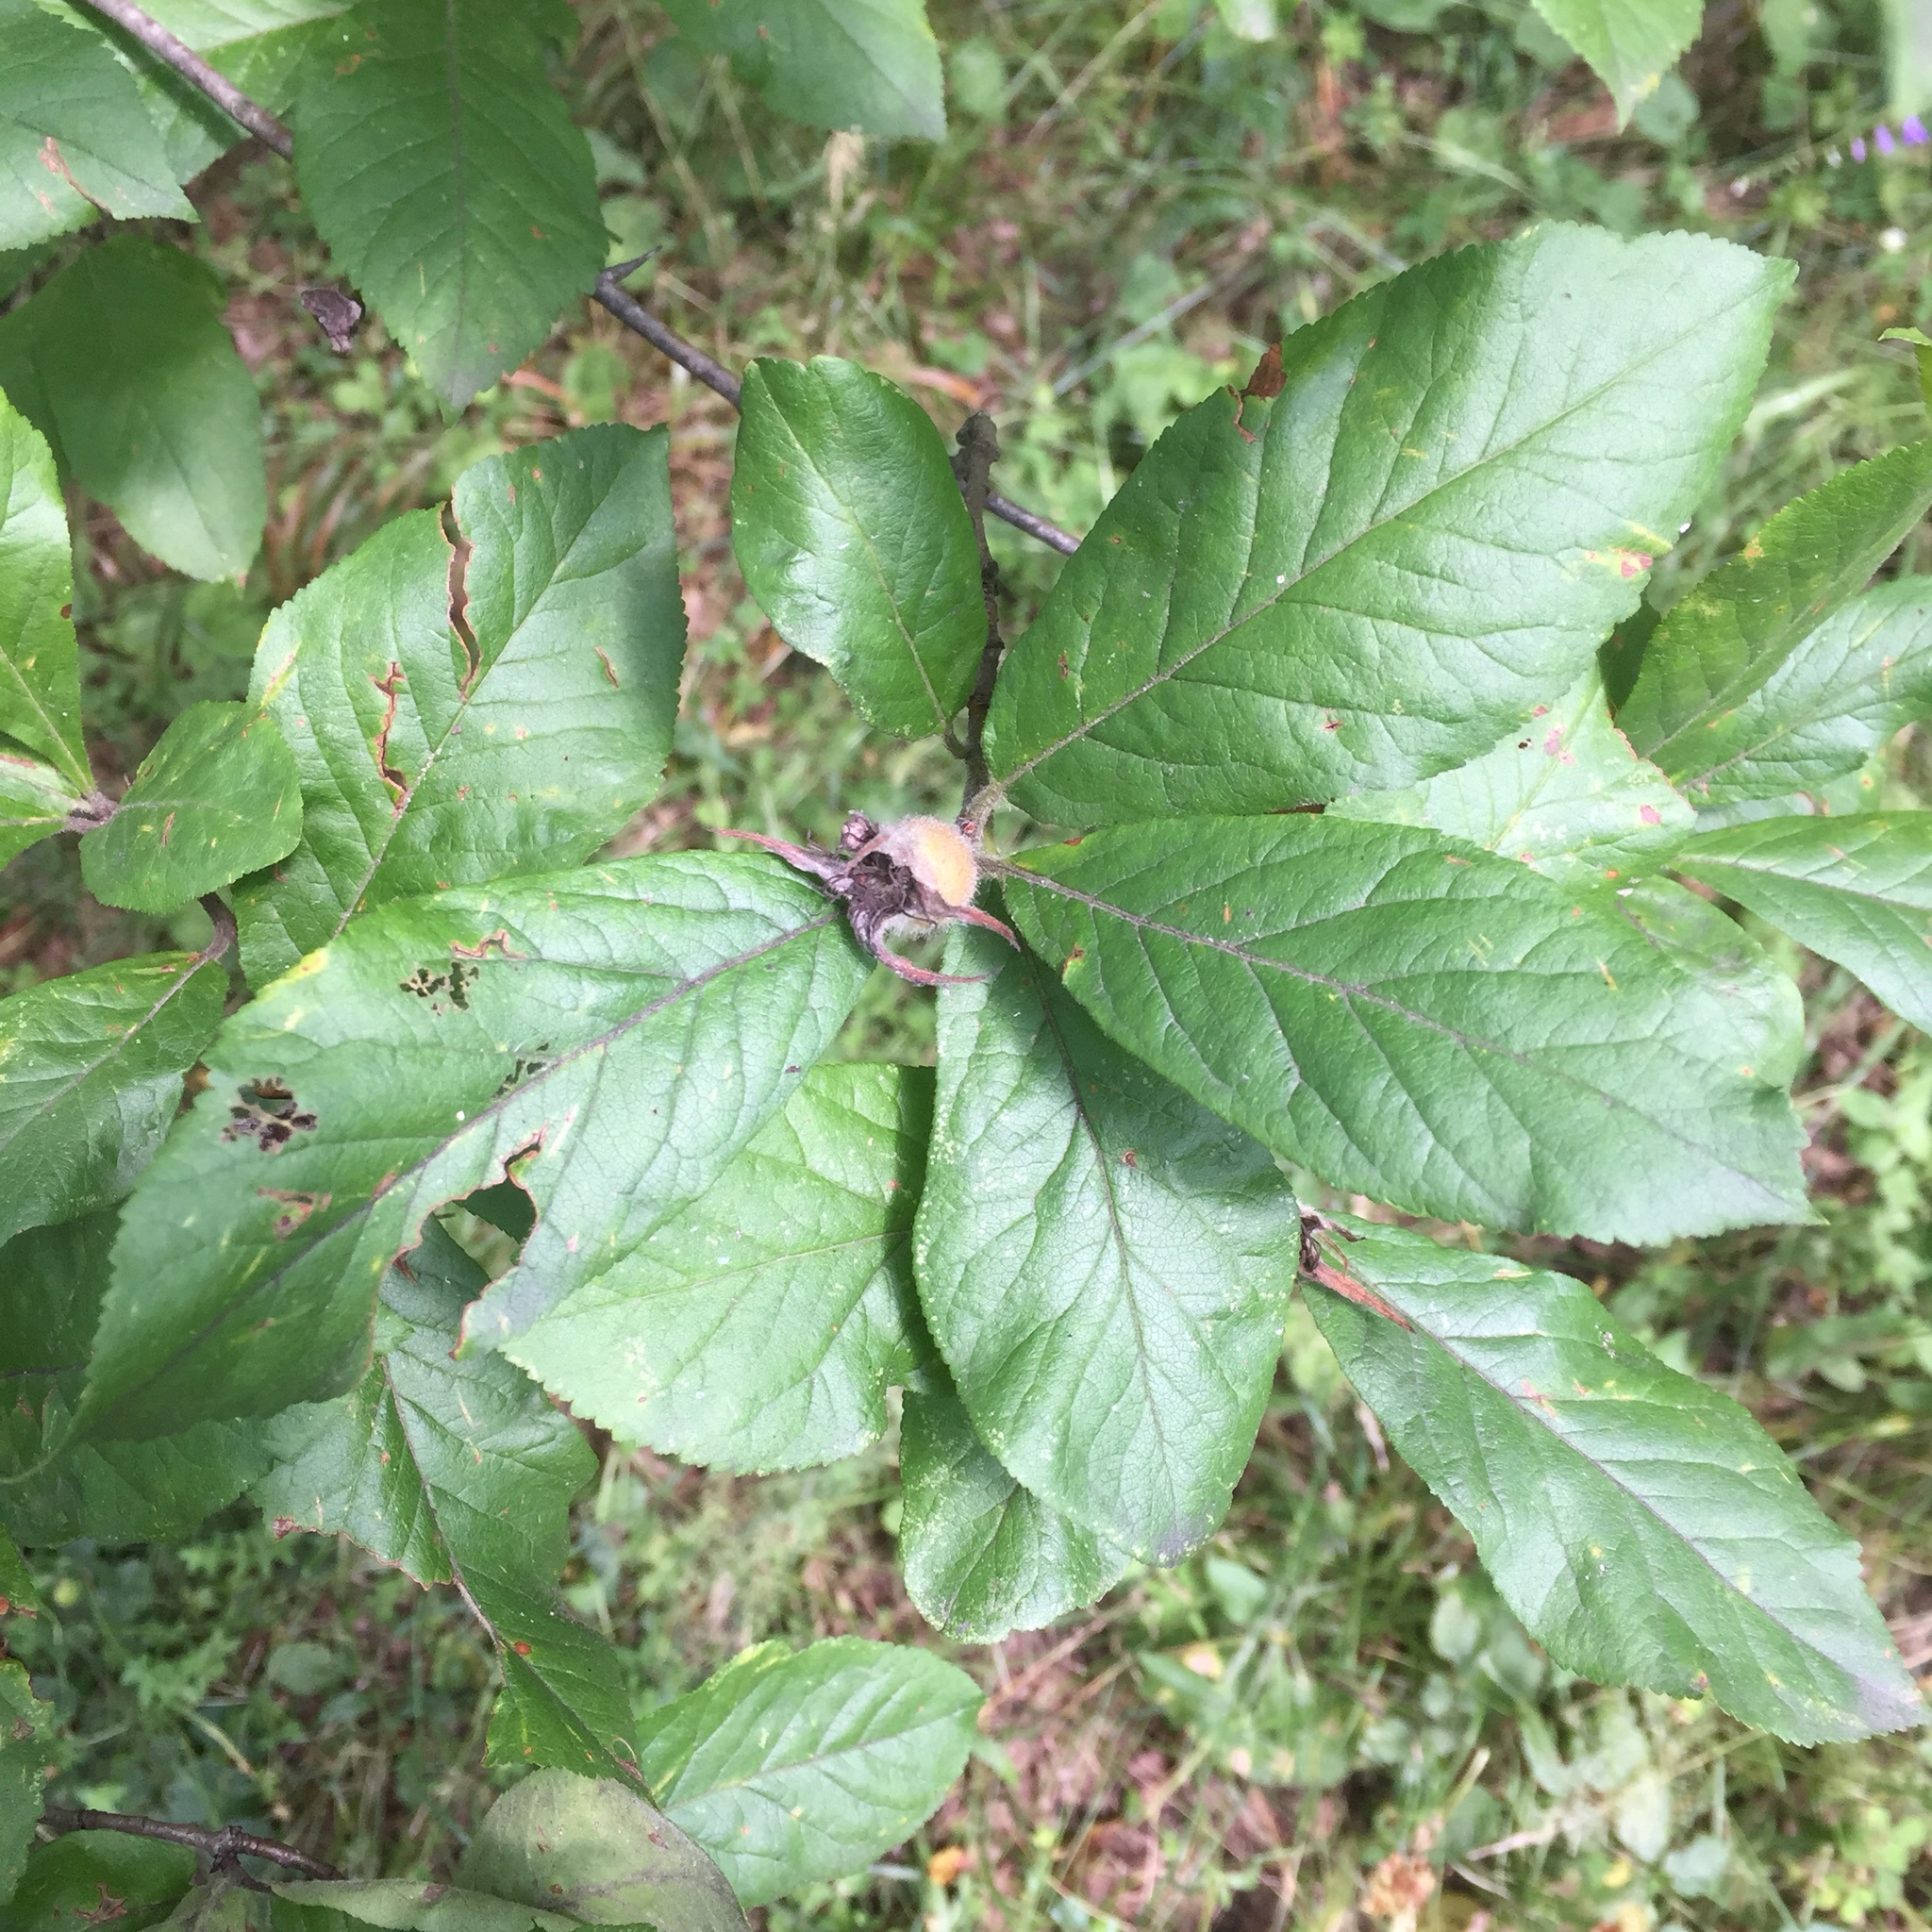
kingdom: Plantae
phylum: Tracheophyta
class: Magnoliopsida
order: Rosales
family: Rosaceae
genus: Mespilus
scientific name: Mespilus germanica
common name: Medlar
